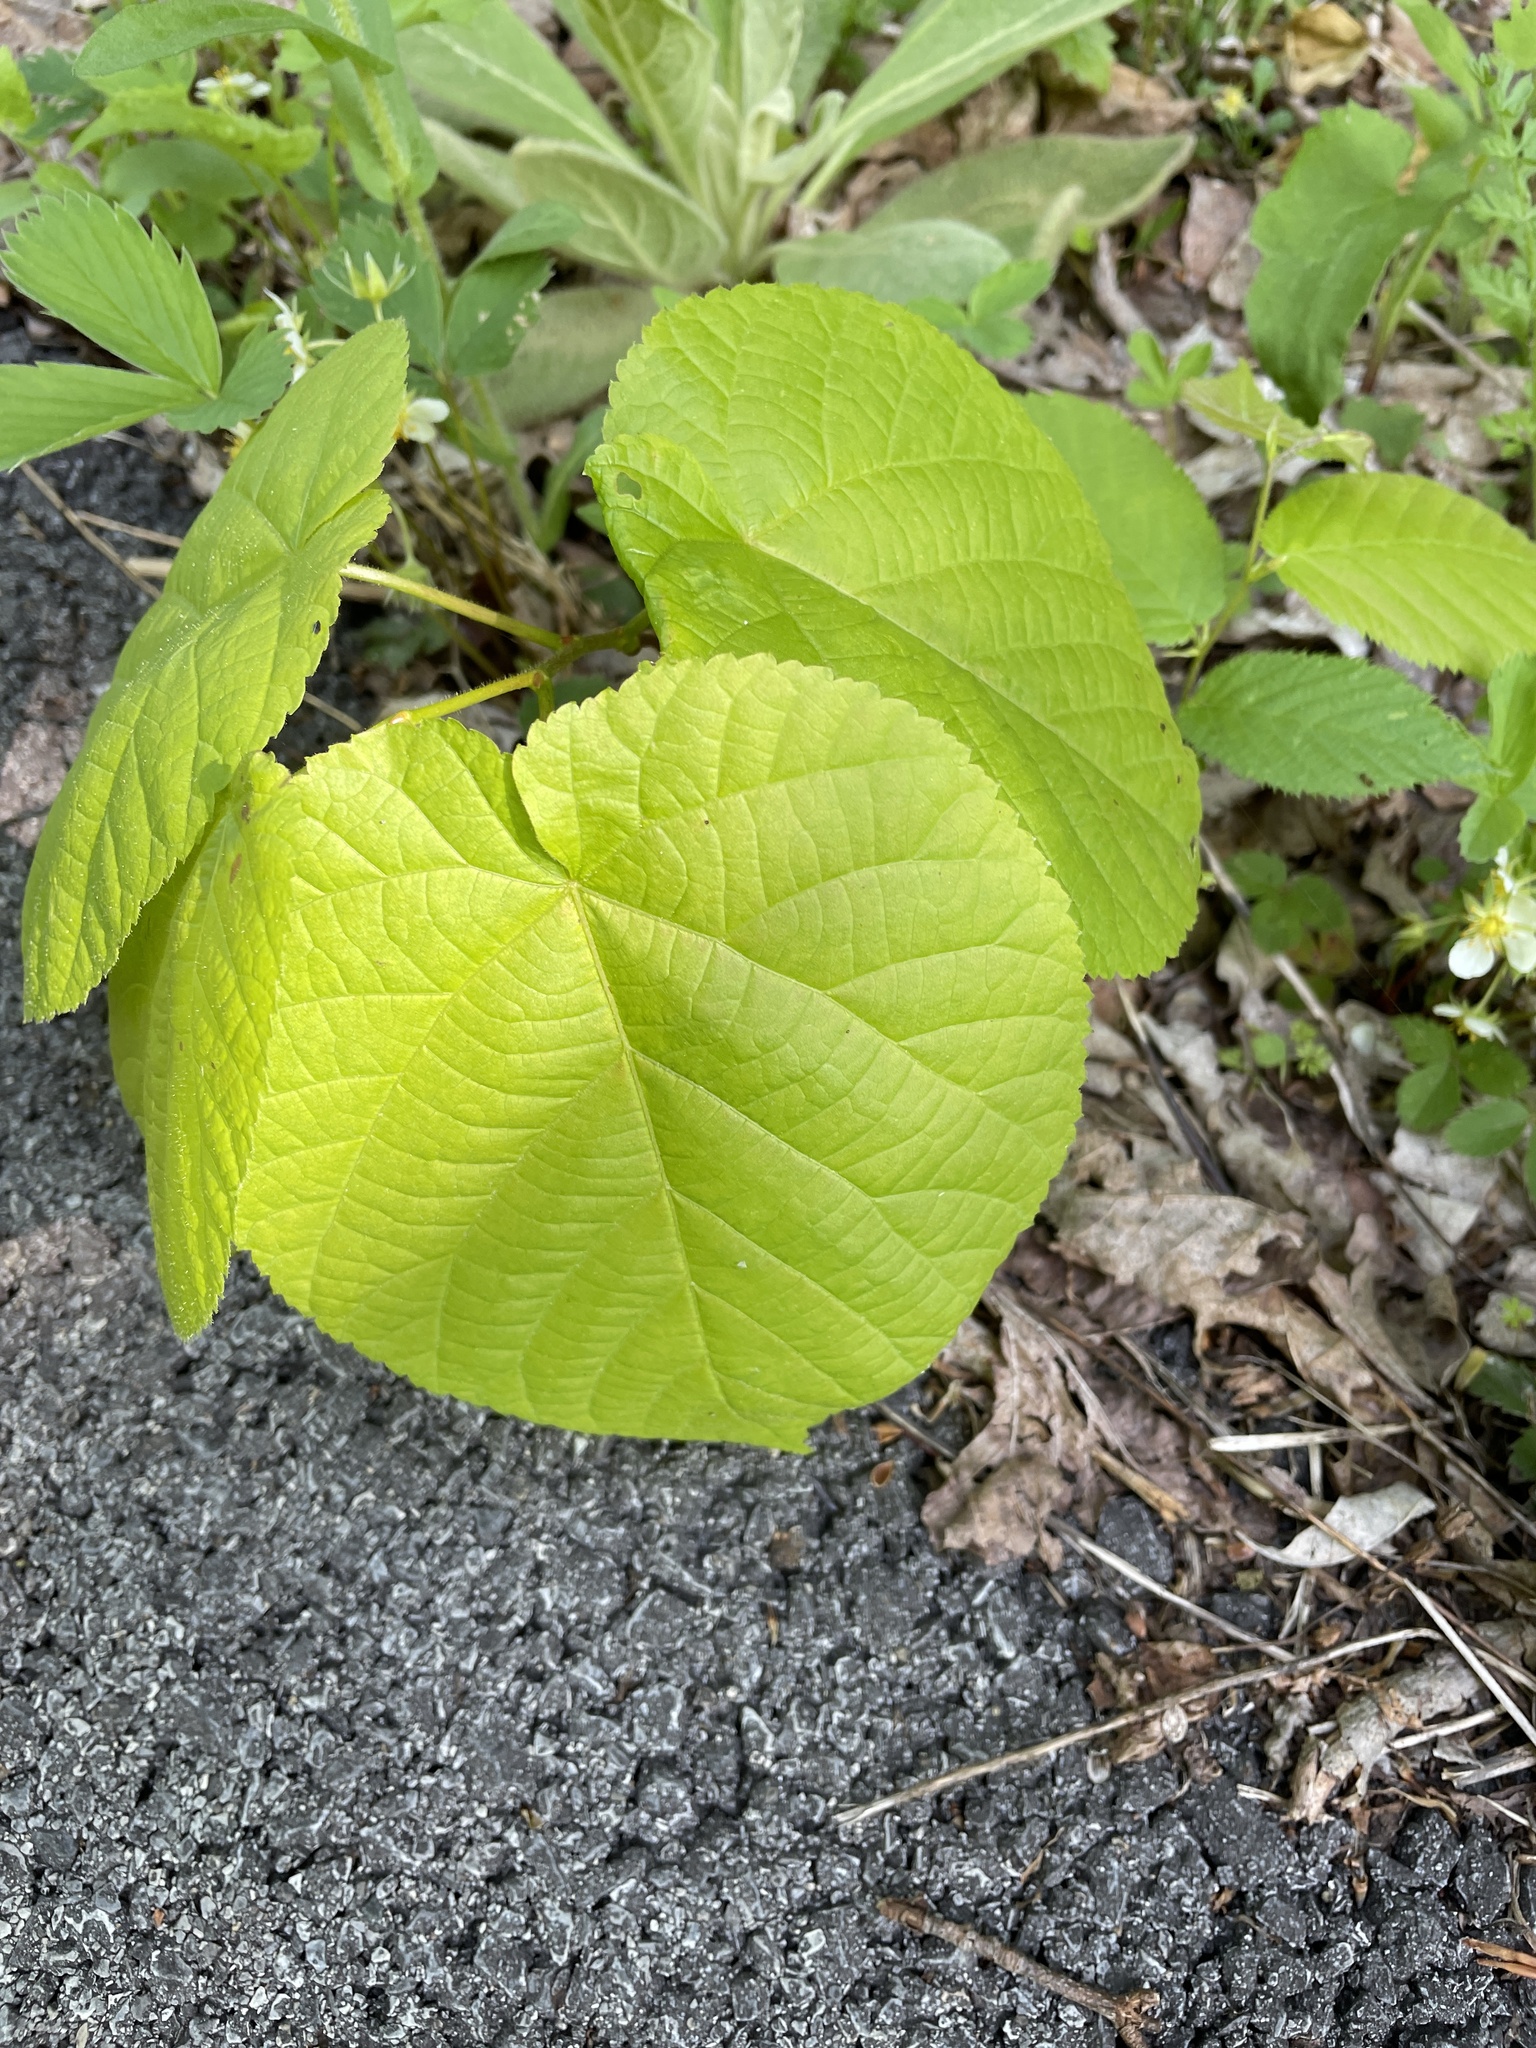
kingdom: Plantae
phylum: Tracheophyta
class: Magnoliopsida
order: Malvales
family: Malvaceae
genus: Tilia
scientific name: Tilia americana
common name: Basswood
